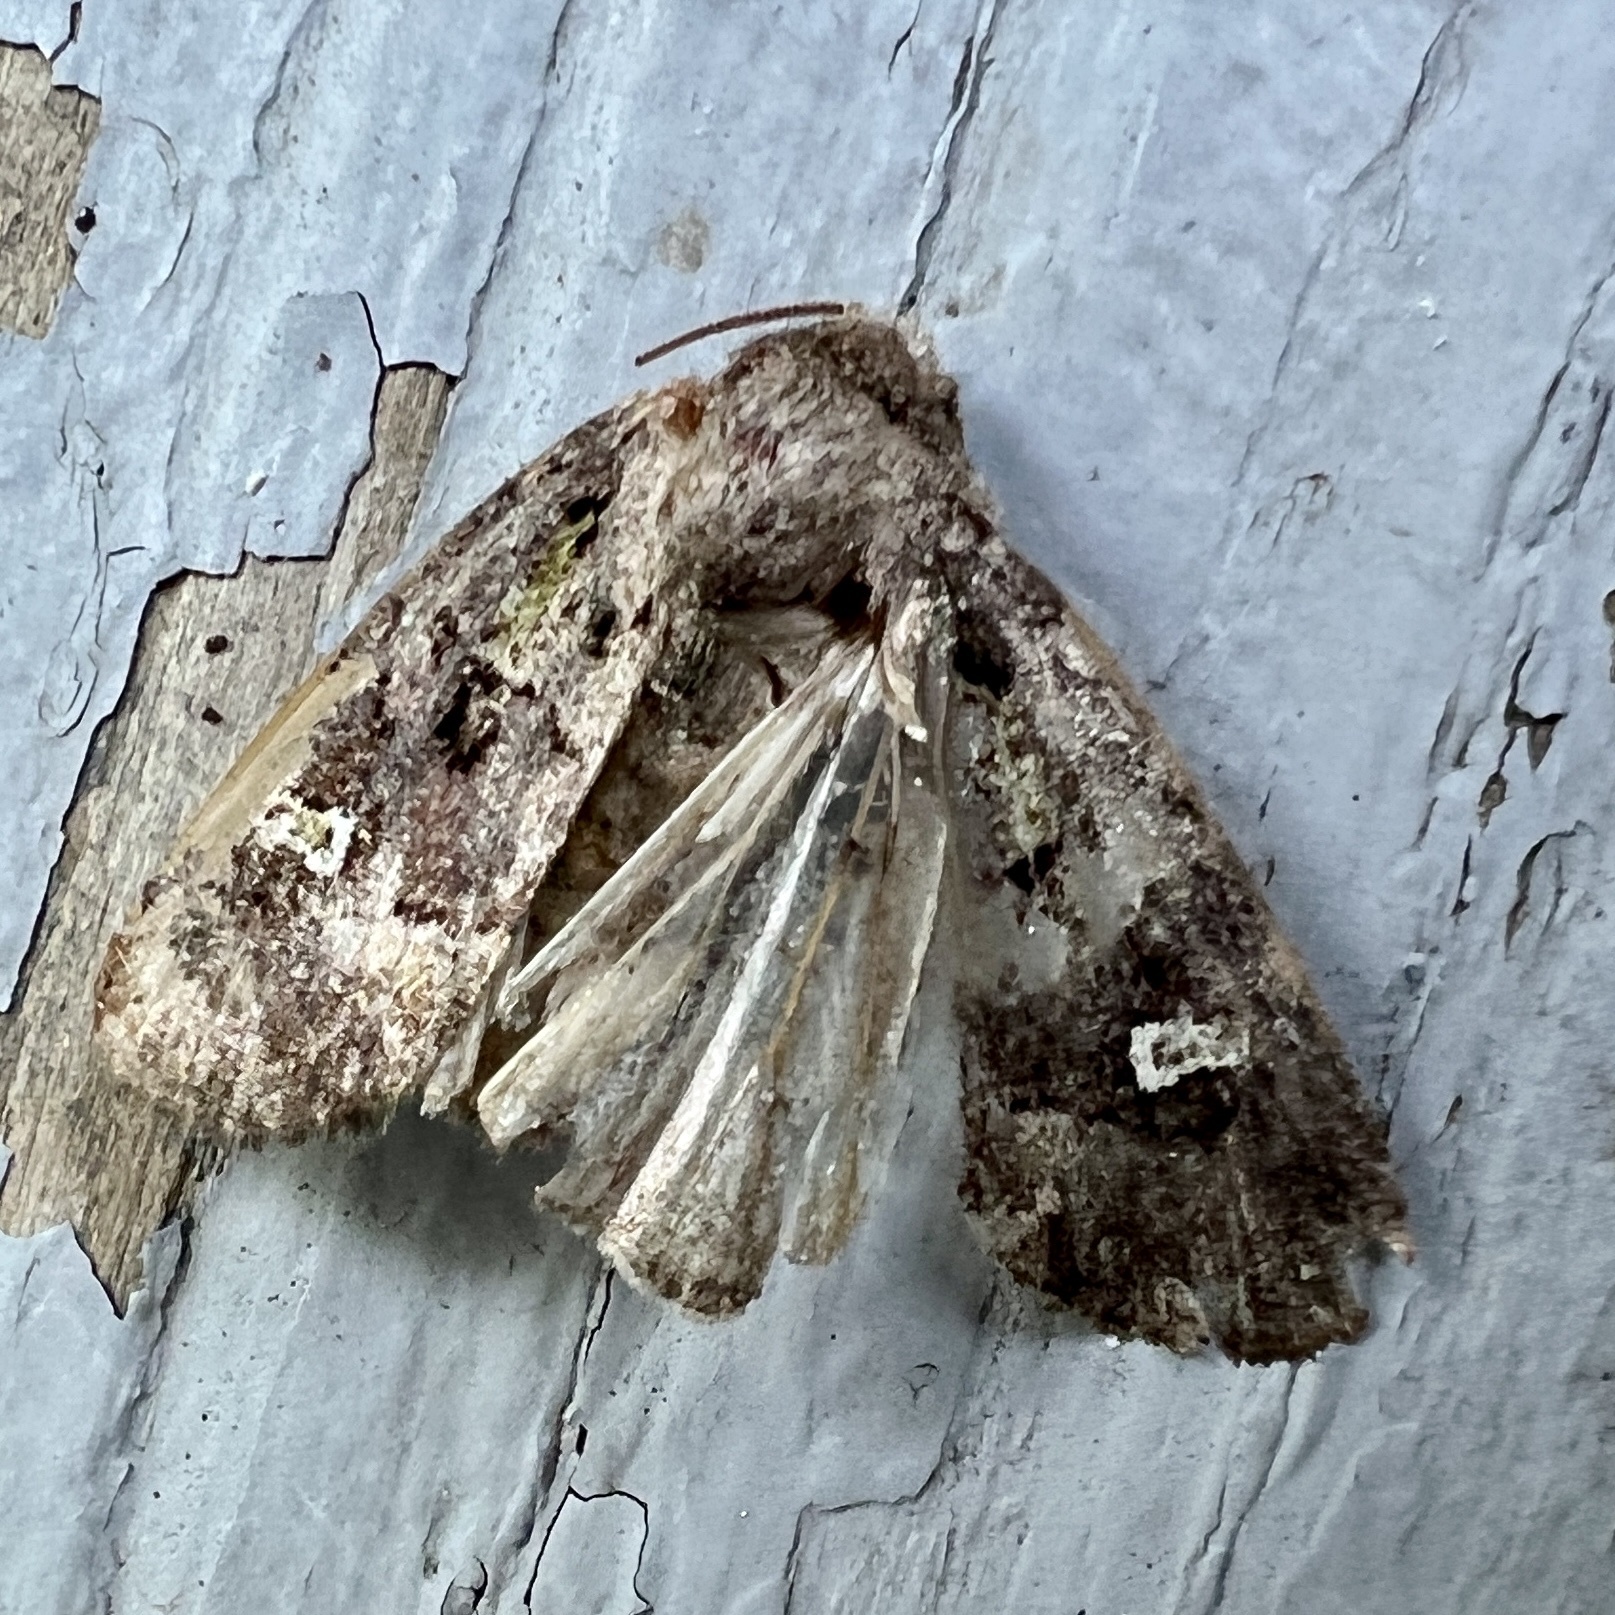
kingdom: Animalia
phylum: Arthropoda
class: Insecta
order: Lepidoptera
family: Noctuidae
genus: Lacinipolia
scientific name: Lacinipolia renigera
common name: Kidney-spotted minor
